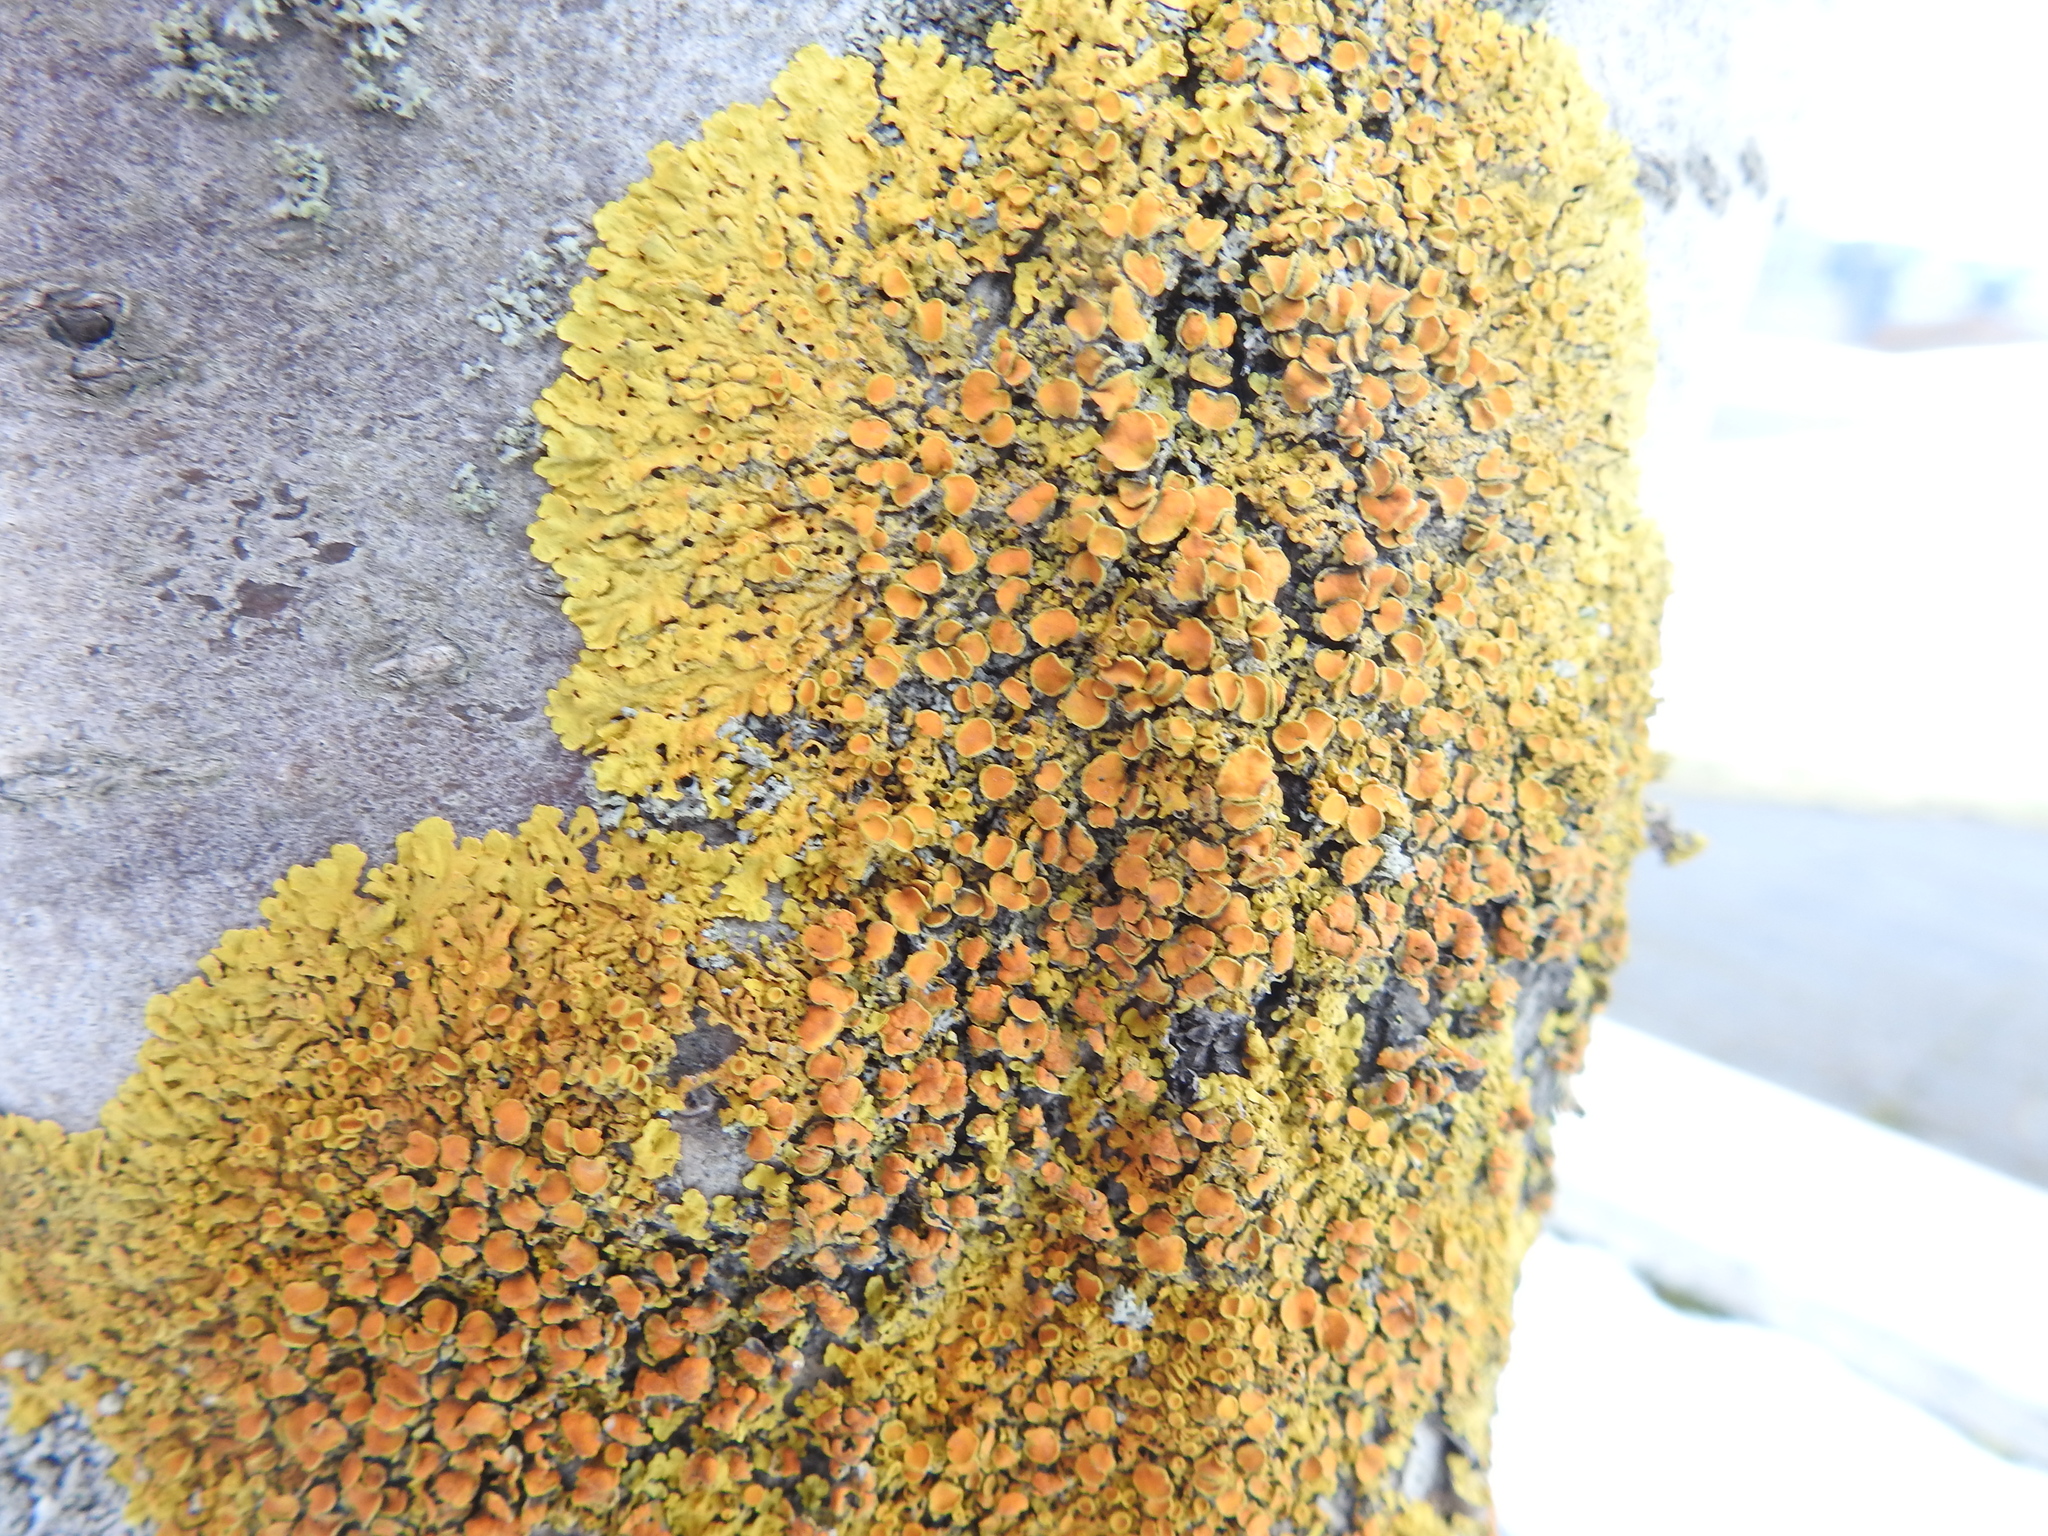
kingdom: Fungi
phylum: Ascomycota
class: Lecanoromycetes
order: Teloschistales
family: Teloschistaceae
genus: Xanthoria
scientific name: Xanthoria parietina
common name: Common orange lichen
